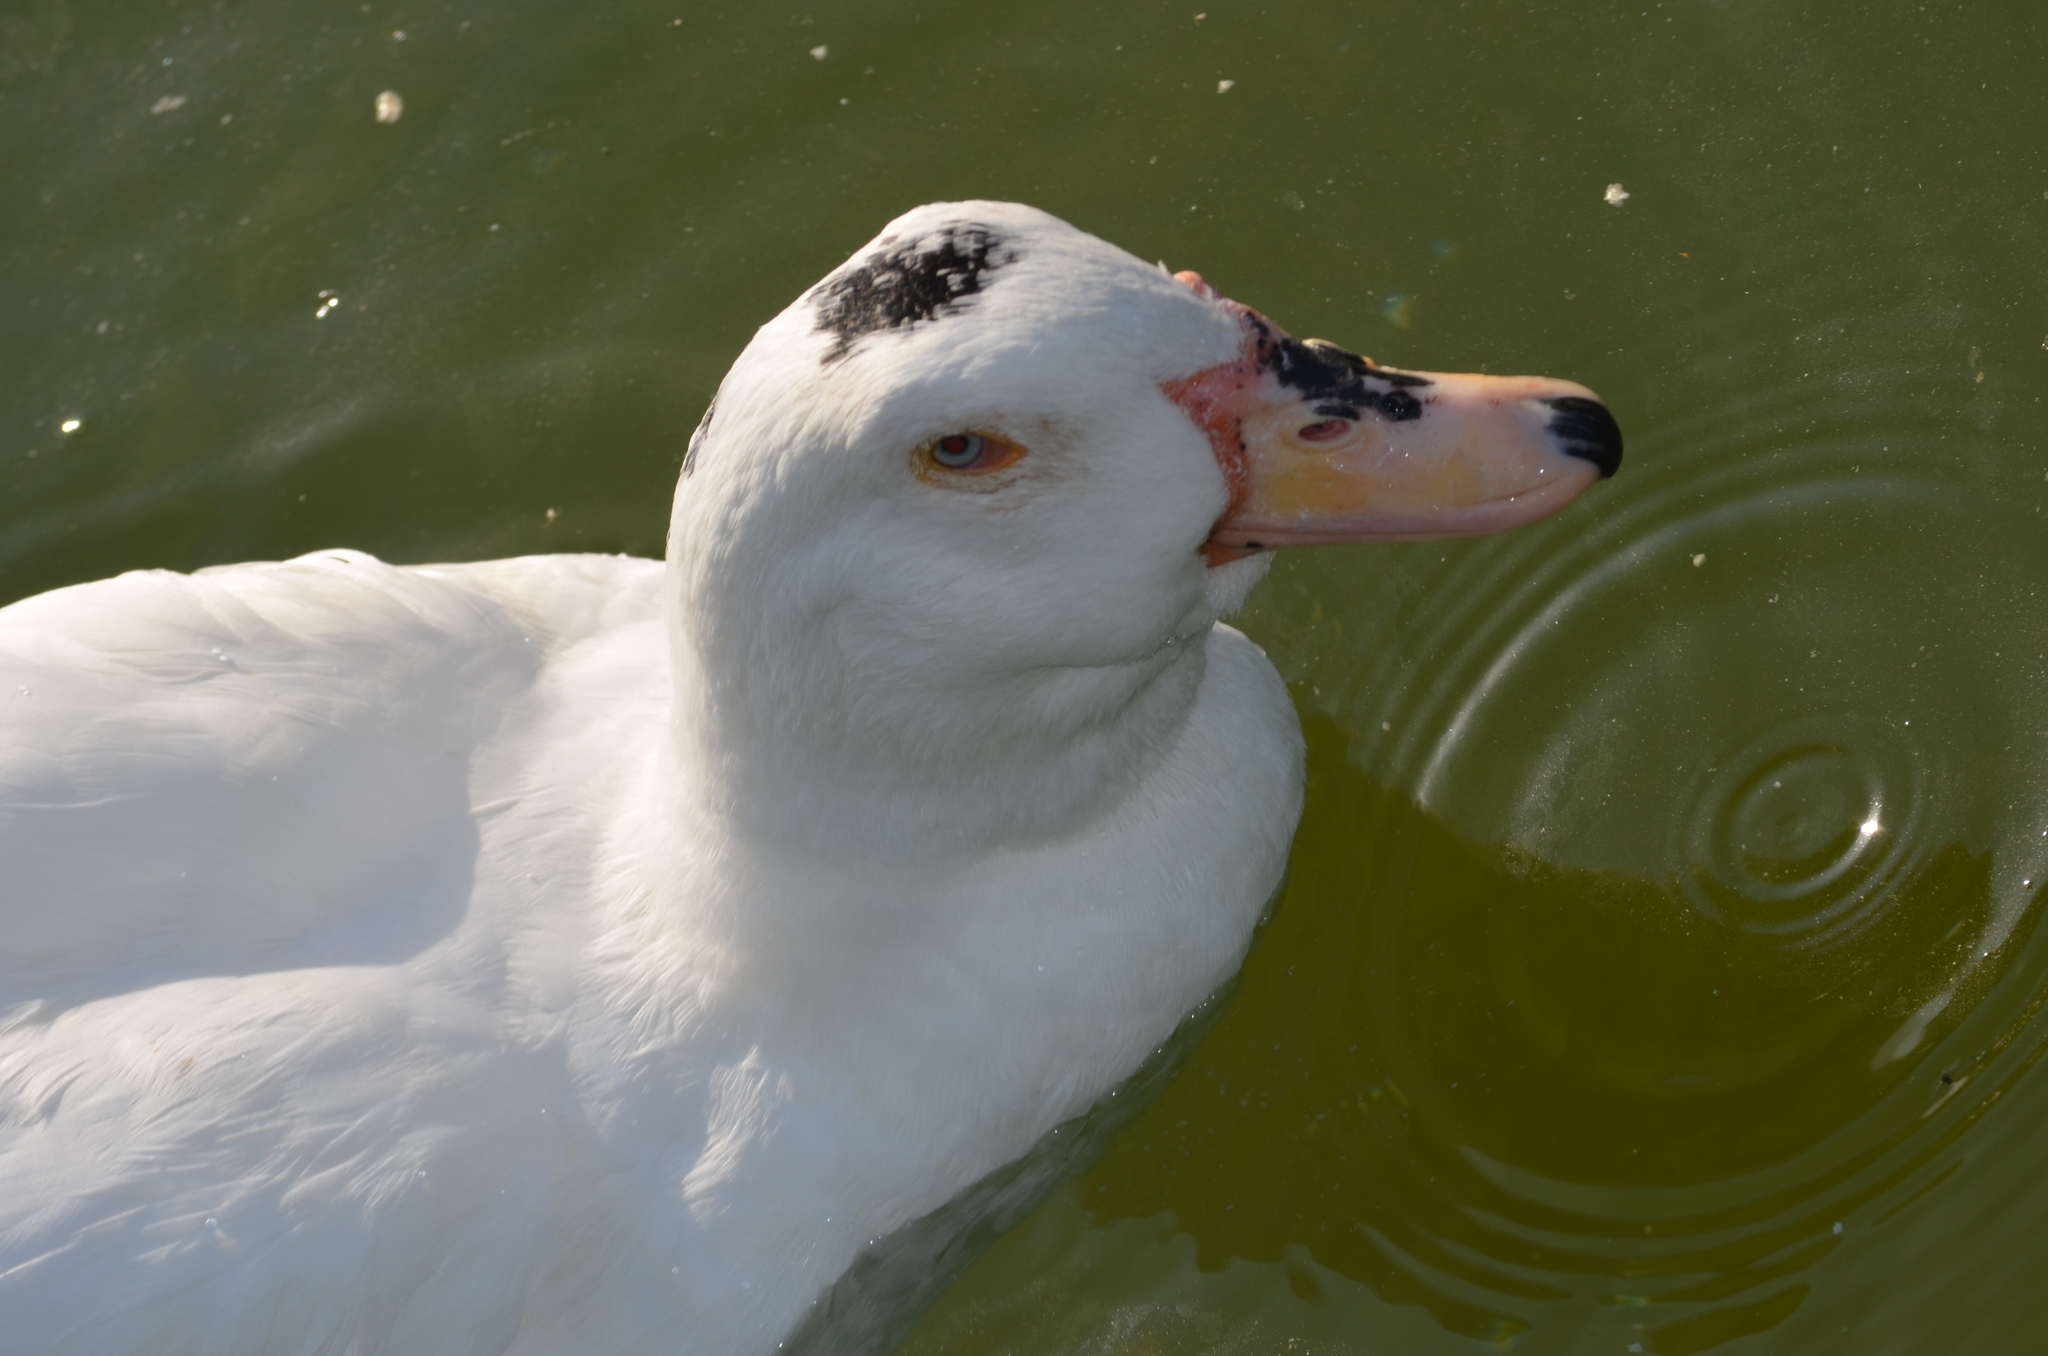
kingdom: Animalia
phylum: Chordata
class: Aves
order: Anseriformes
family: Anatidae
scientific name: Anatidae
